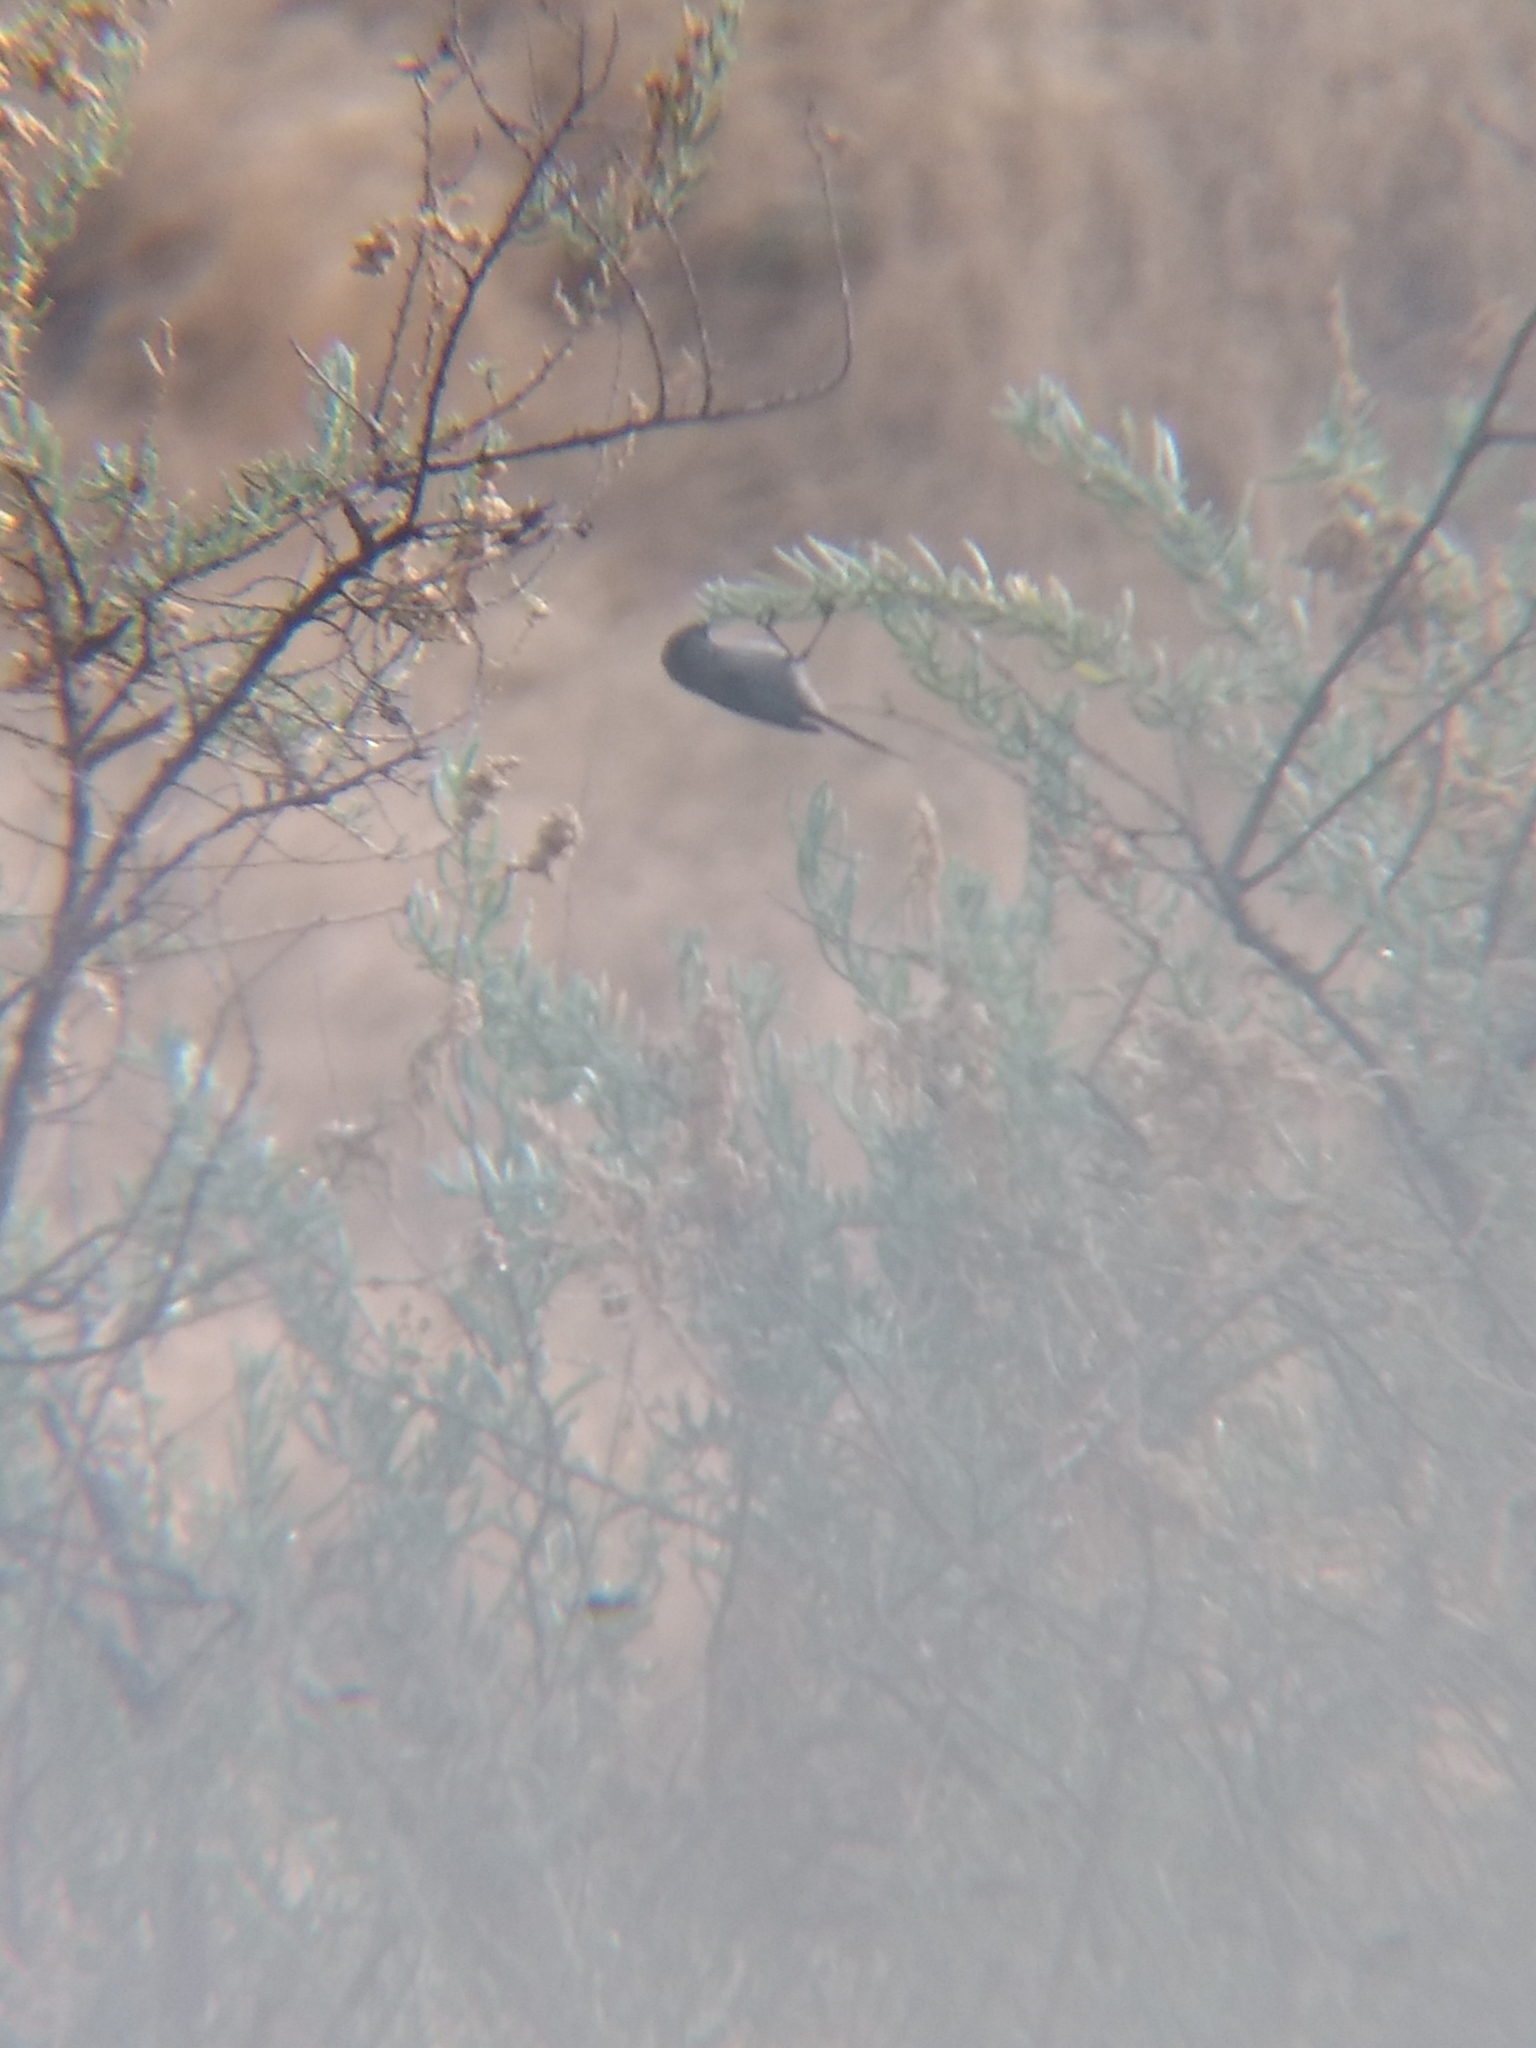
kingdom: Animalia
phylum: Chordata
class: Aves
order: Passeriformes
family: Aegithalidae
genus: Psaltriparus
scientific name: Psaltriparus minimus
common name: American bushtit
